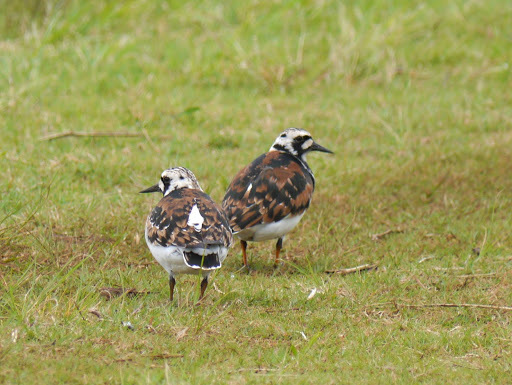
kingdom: Animalia
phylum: Chordata
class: Aves
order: Charadriiformes
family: Scolopacidae
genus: Arenaria
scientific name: Arenaria interpres
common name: Ruddy turnstone
